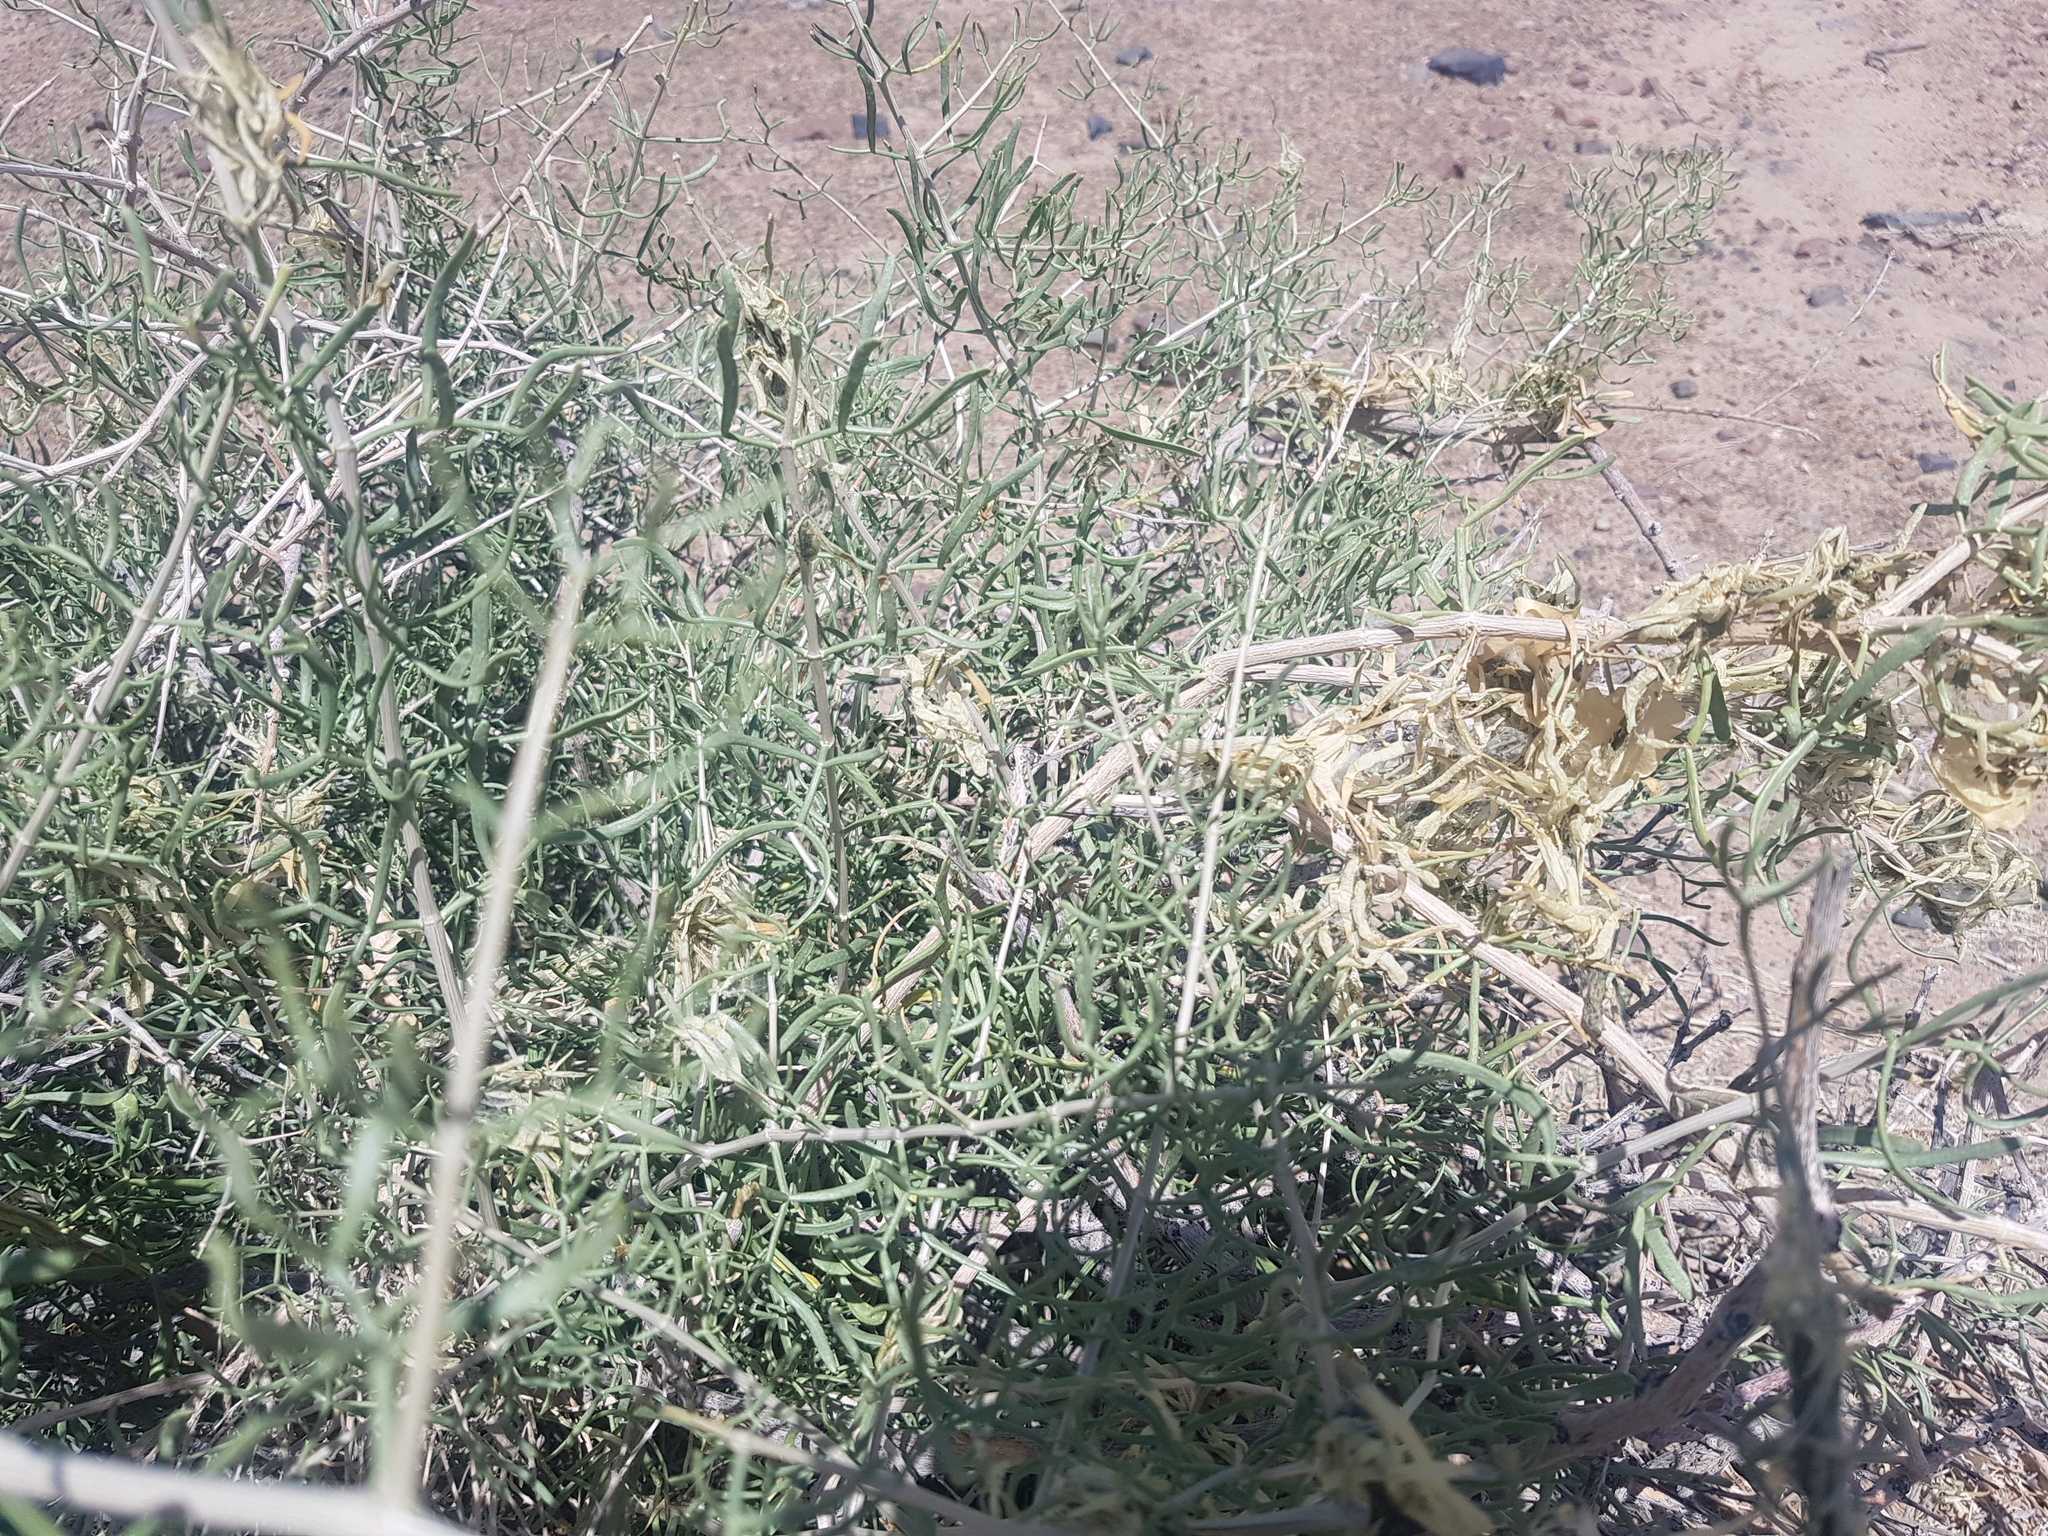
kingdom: Plantae
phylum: Tracheophyta
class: Magnoliopsida
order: Zygophyllales
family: Zygophyllaceae
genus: Zygophyllum
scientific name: Zygophyllum xanthoxylum
